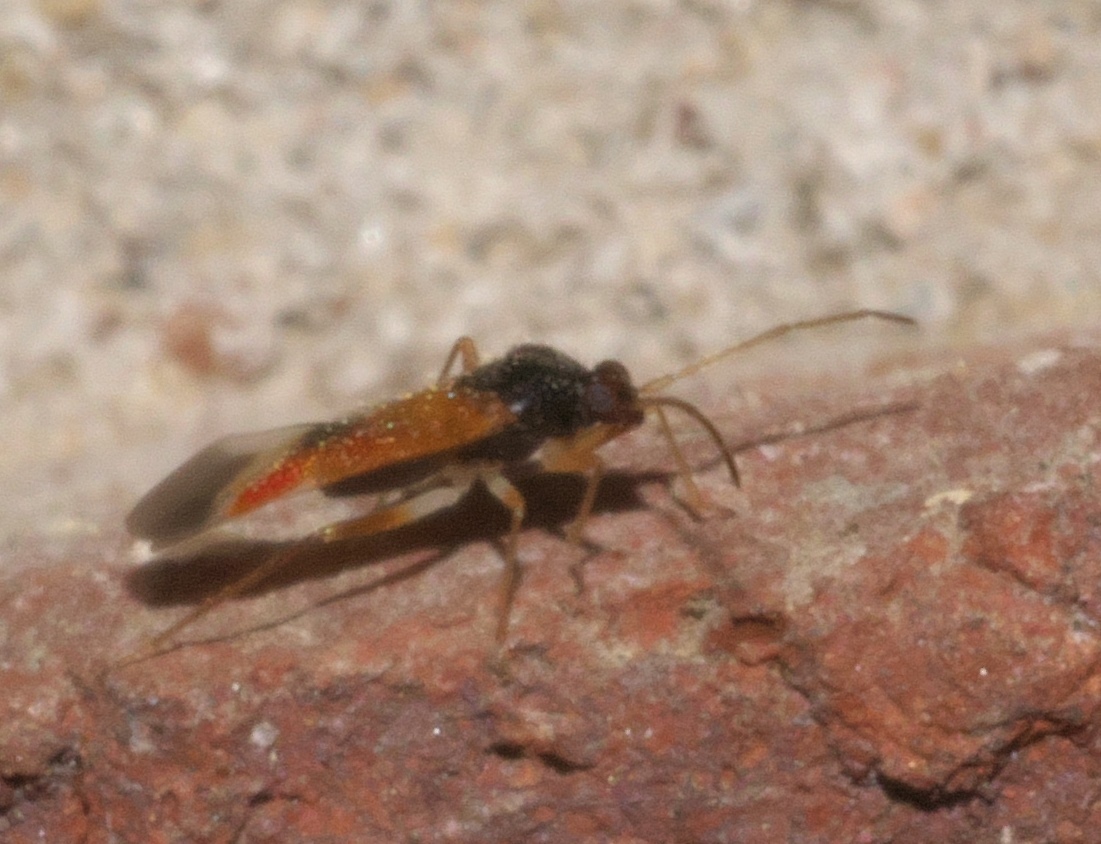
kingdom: Animalia
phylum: Arthropoda
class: Insecta
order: Hemiptera
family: Miridae
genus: Ceratocapsus
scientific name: Ceratocapsus apicalis
